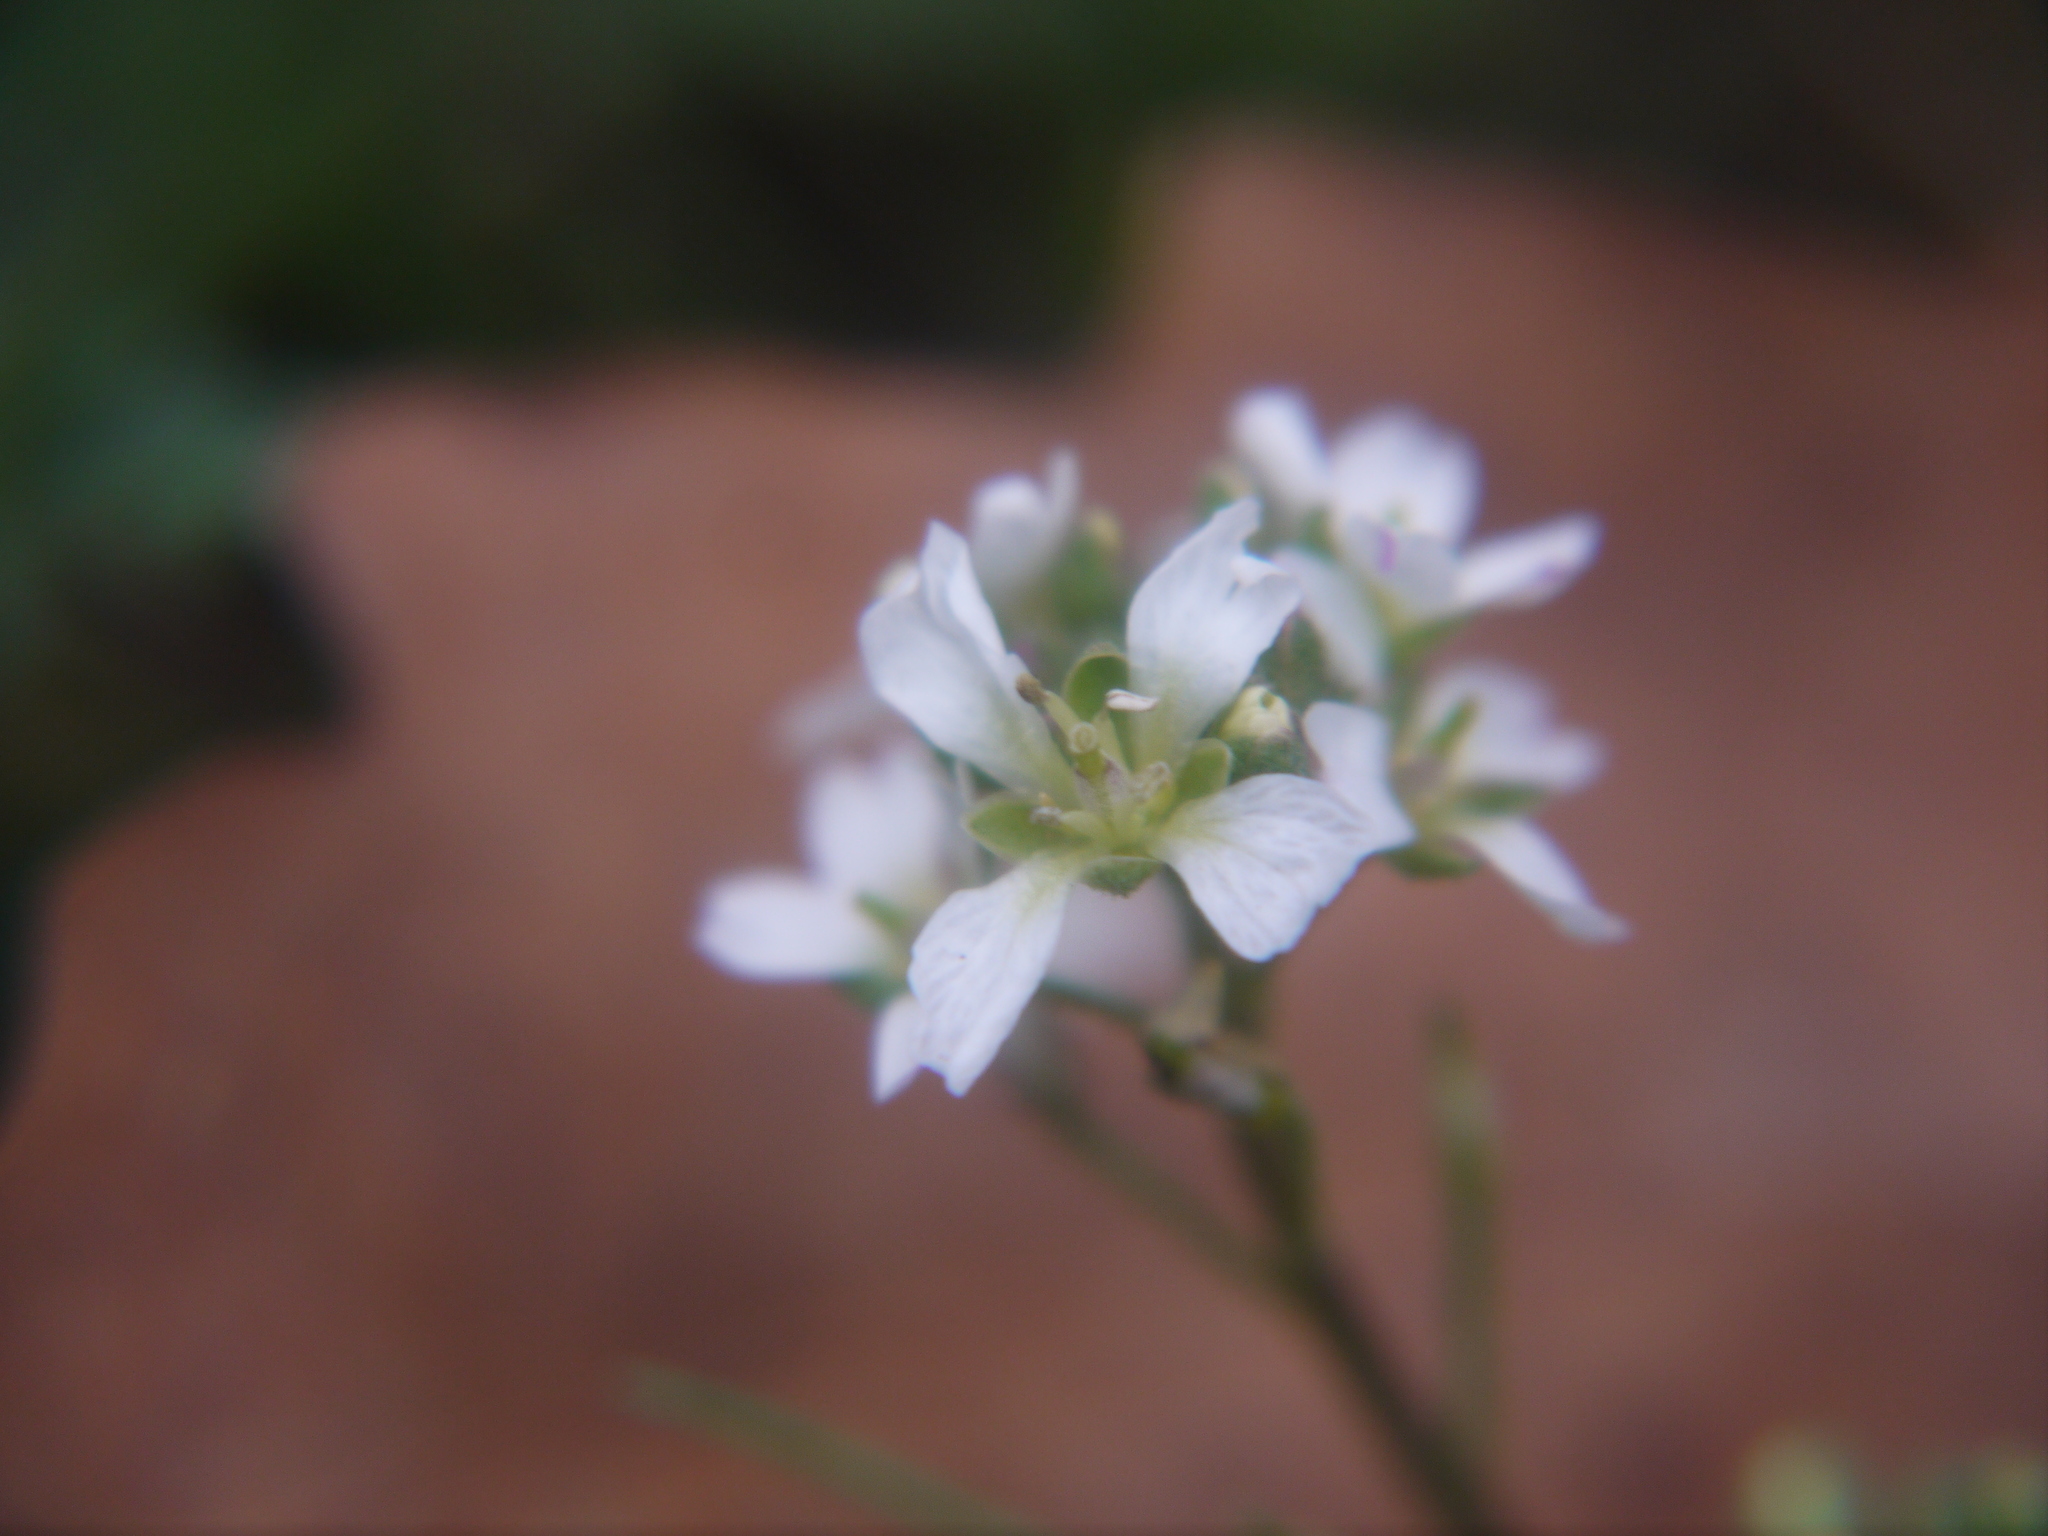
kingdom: Plantae
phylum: Tracheophyta
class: Magnoliopsida
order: Brassicales
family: Brassicaceae
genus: Berteroa
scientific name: Berteroa incana
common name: Hoary alison
